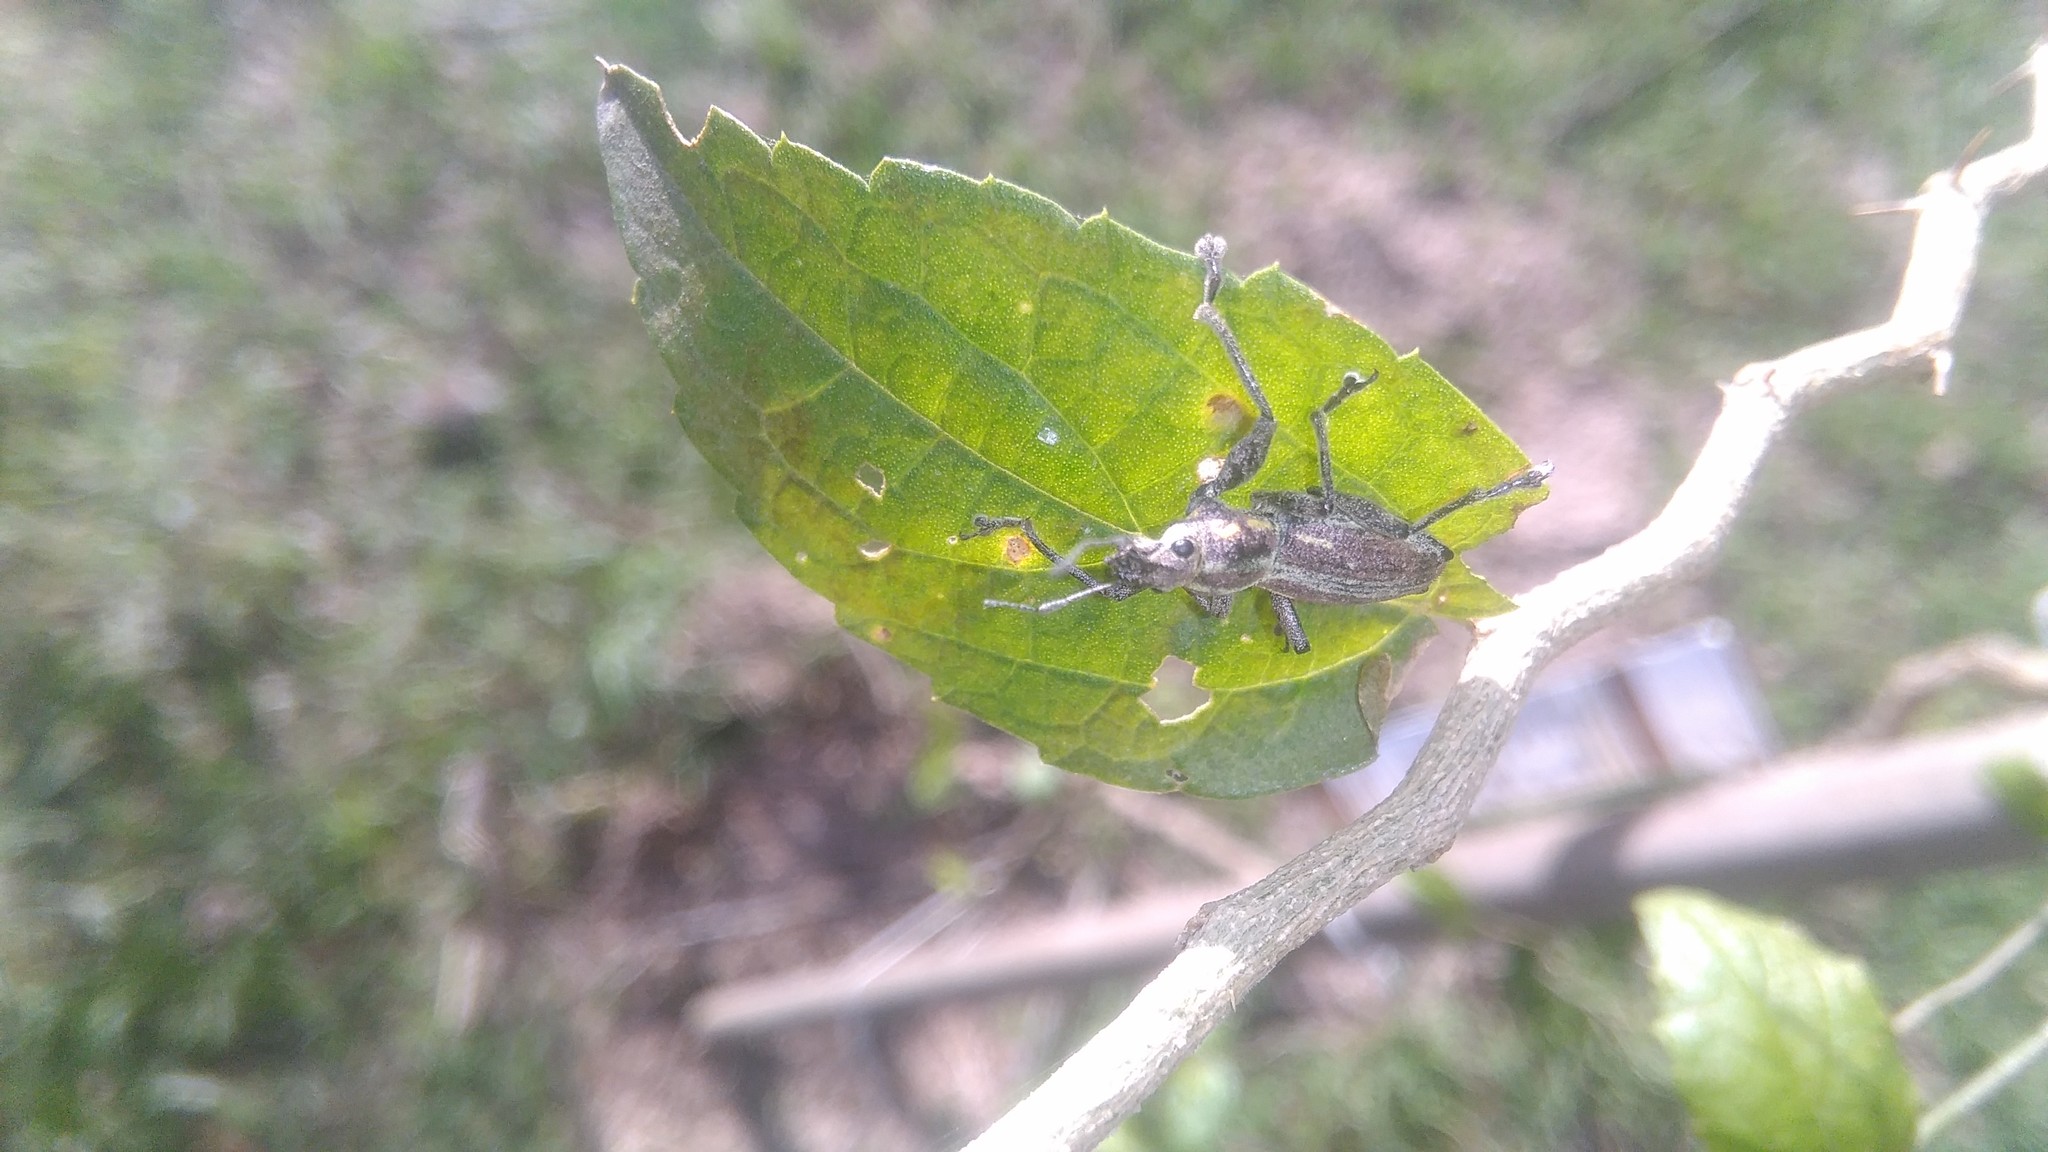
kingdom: Animalia
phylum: Arthropoda
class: Insecta
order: Coleoptera
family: Curculionidae
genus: Naupactus
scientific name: Naupactus xanthographus
